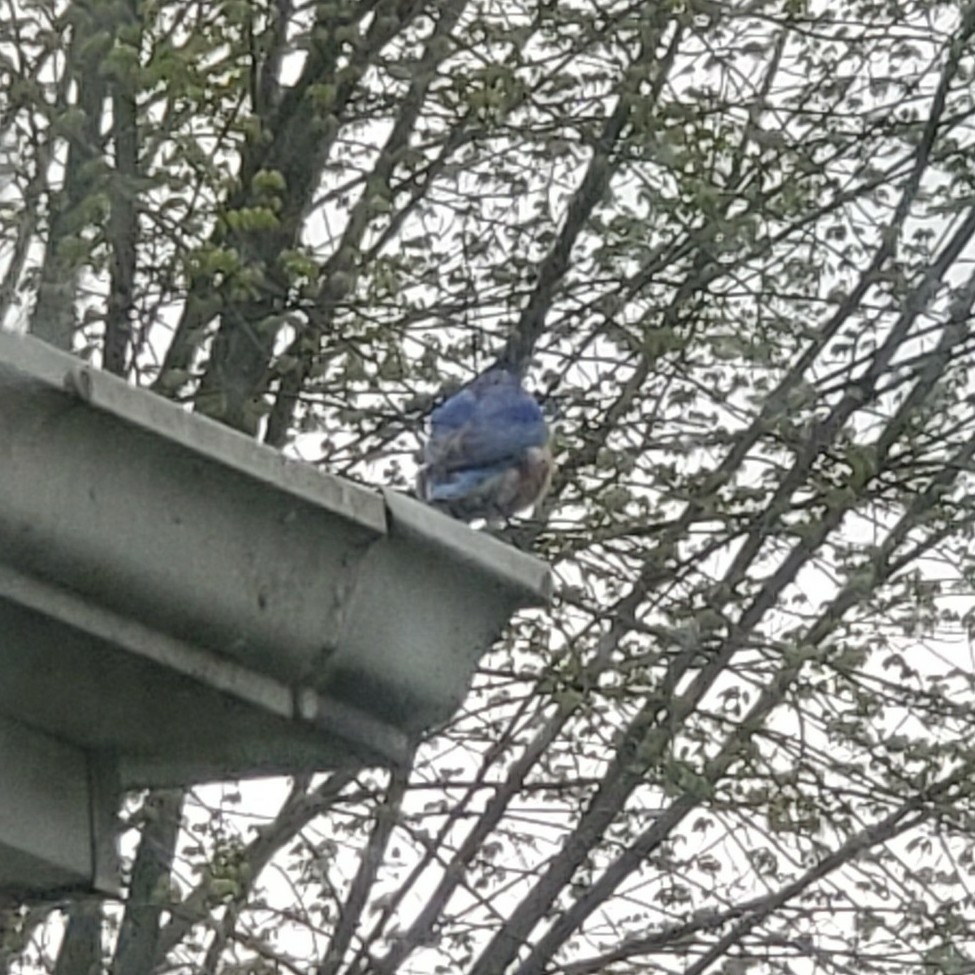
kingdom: Animalia
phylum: Chordata
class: Aves
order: Passeriformes
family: Turdidae
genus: Sialia
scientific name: Sialia sialis
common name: Eastern bluebird
